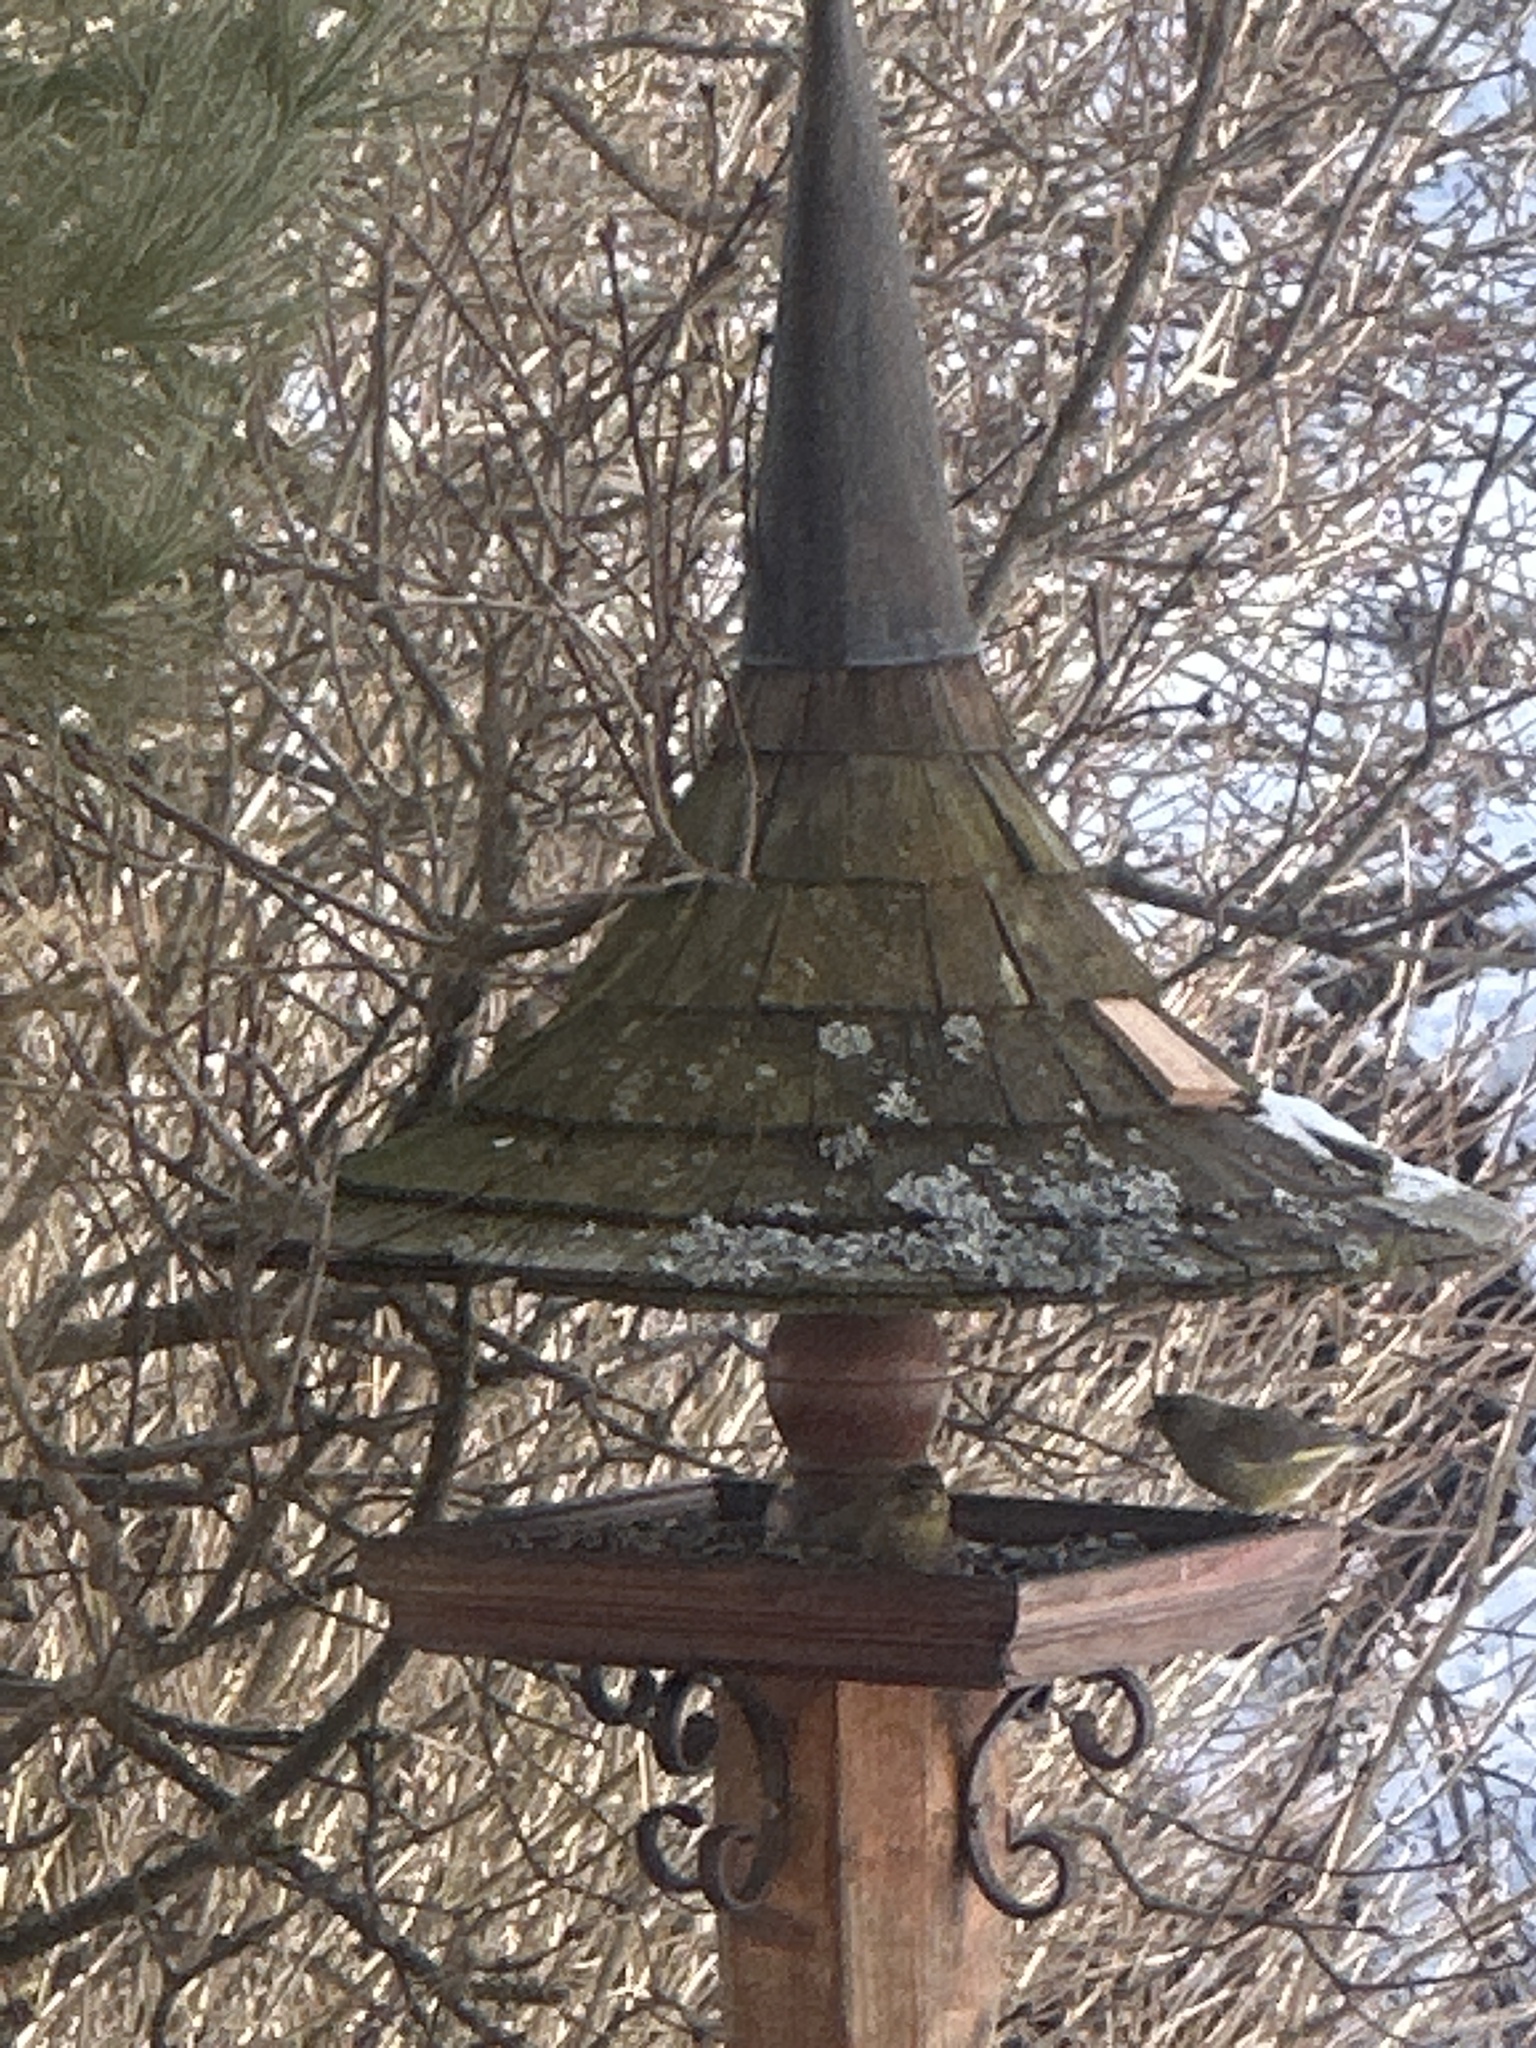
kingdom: Plantae
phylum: Tracheophyta
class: Liliopsida
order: Poales
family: Poaceae
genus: Chloris
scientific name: Chloris chloris
